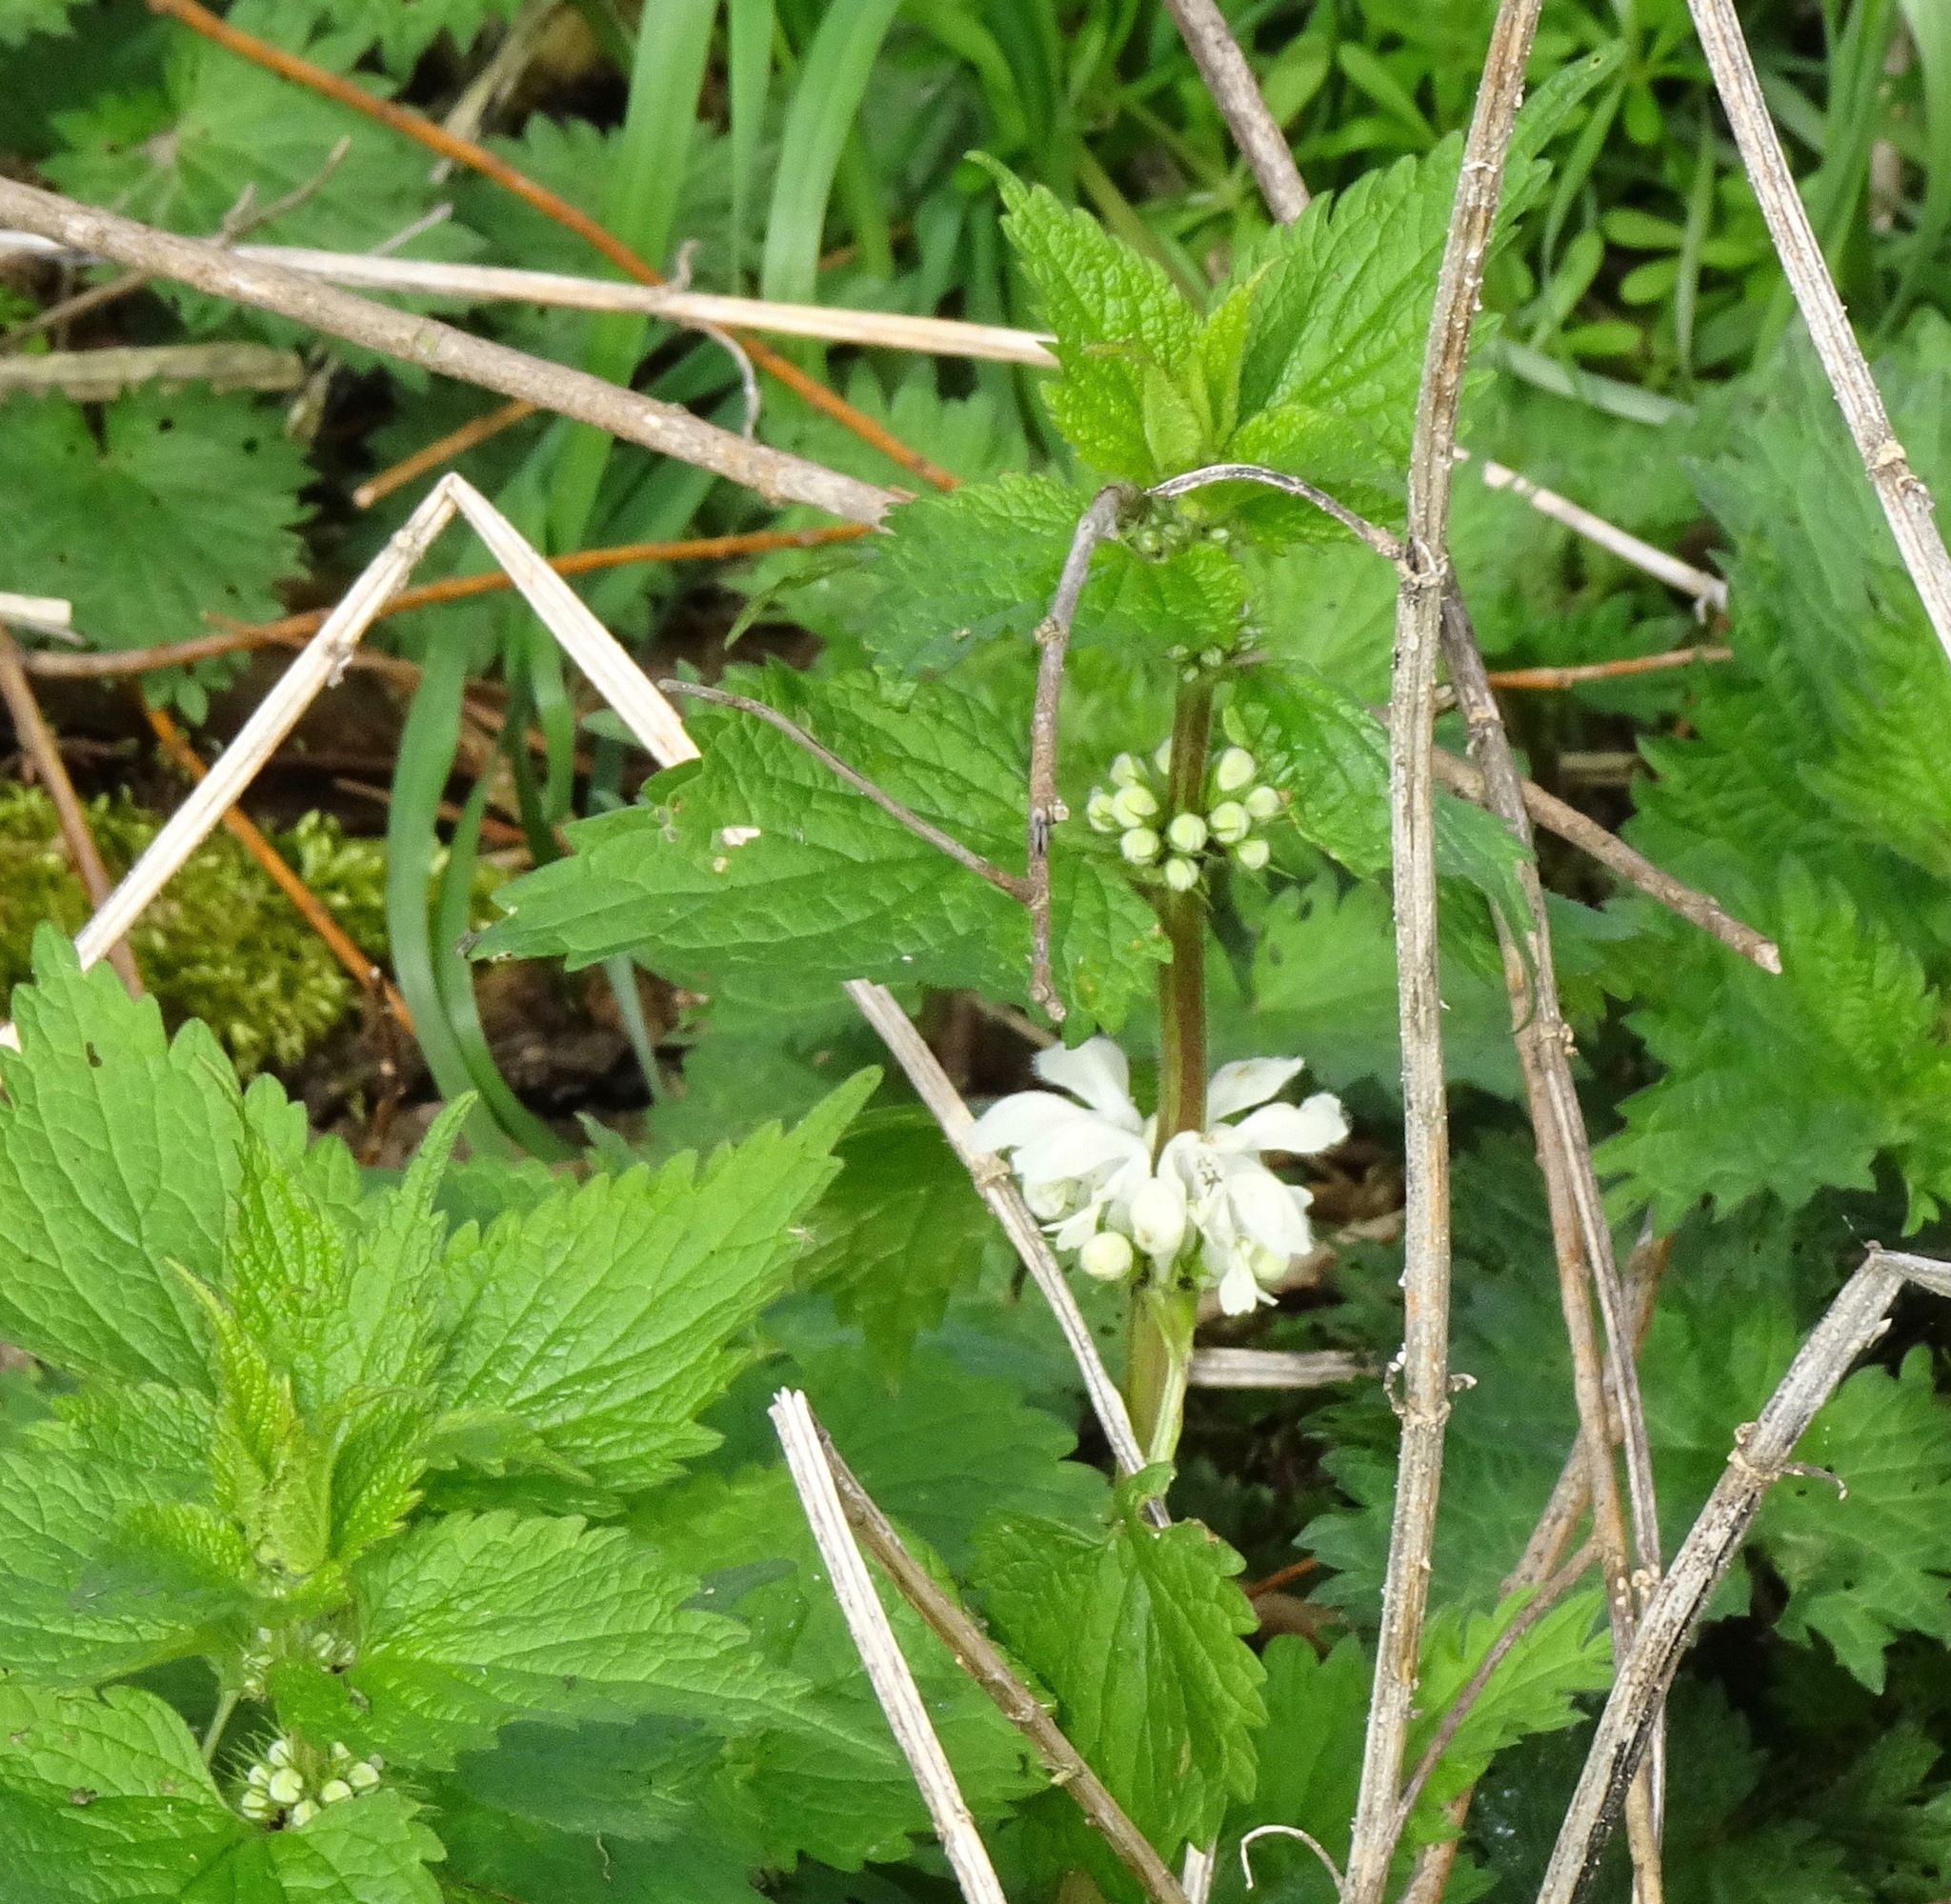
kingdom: Plantae
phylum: Tracheophyta
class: Magnoliopsida
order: Lamiales
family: Lamiaceae
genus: Lamium
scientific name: Lamium album
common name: White dead-nettle
